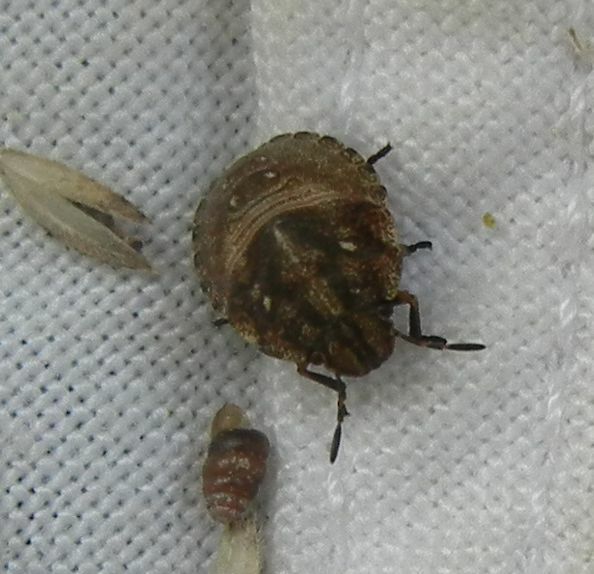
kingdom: Animalia
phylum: Arthropoda
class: Insecta
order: Hemiptera
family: Scutelleridae
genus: Eurygaster
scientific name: Eurygaster testudinaria
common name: Tortoise bug
